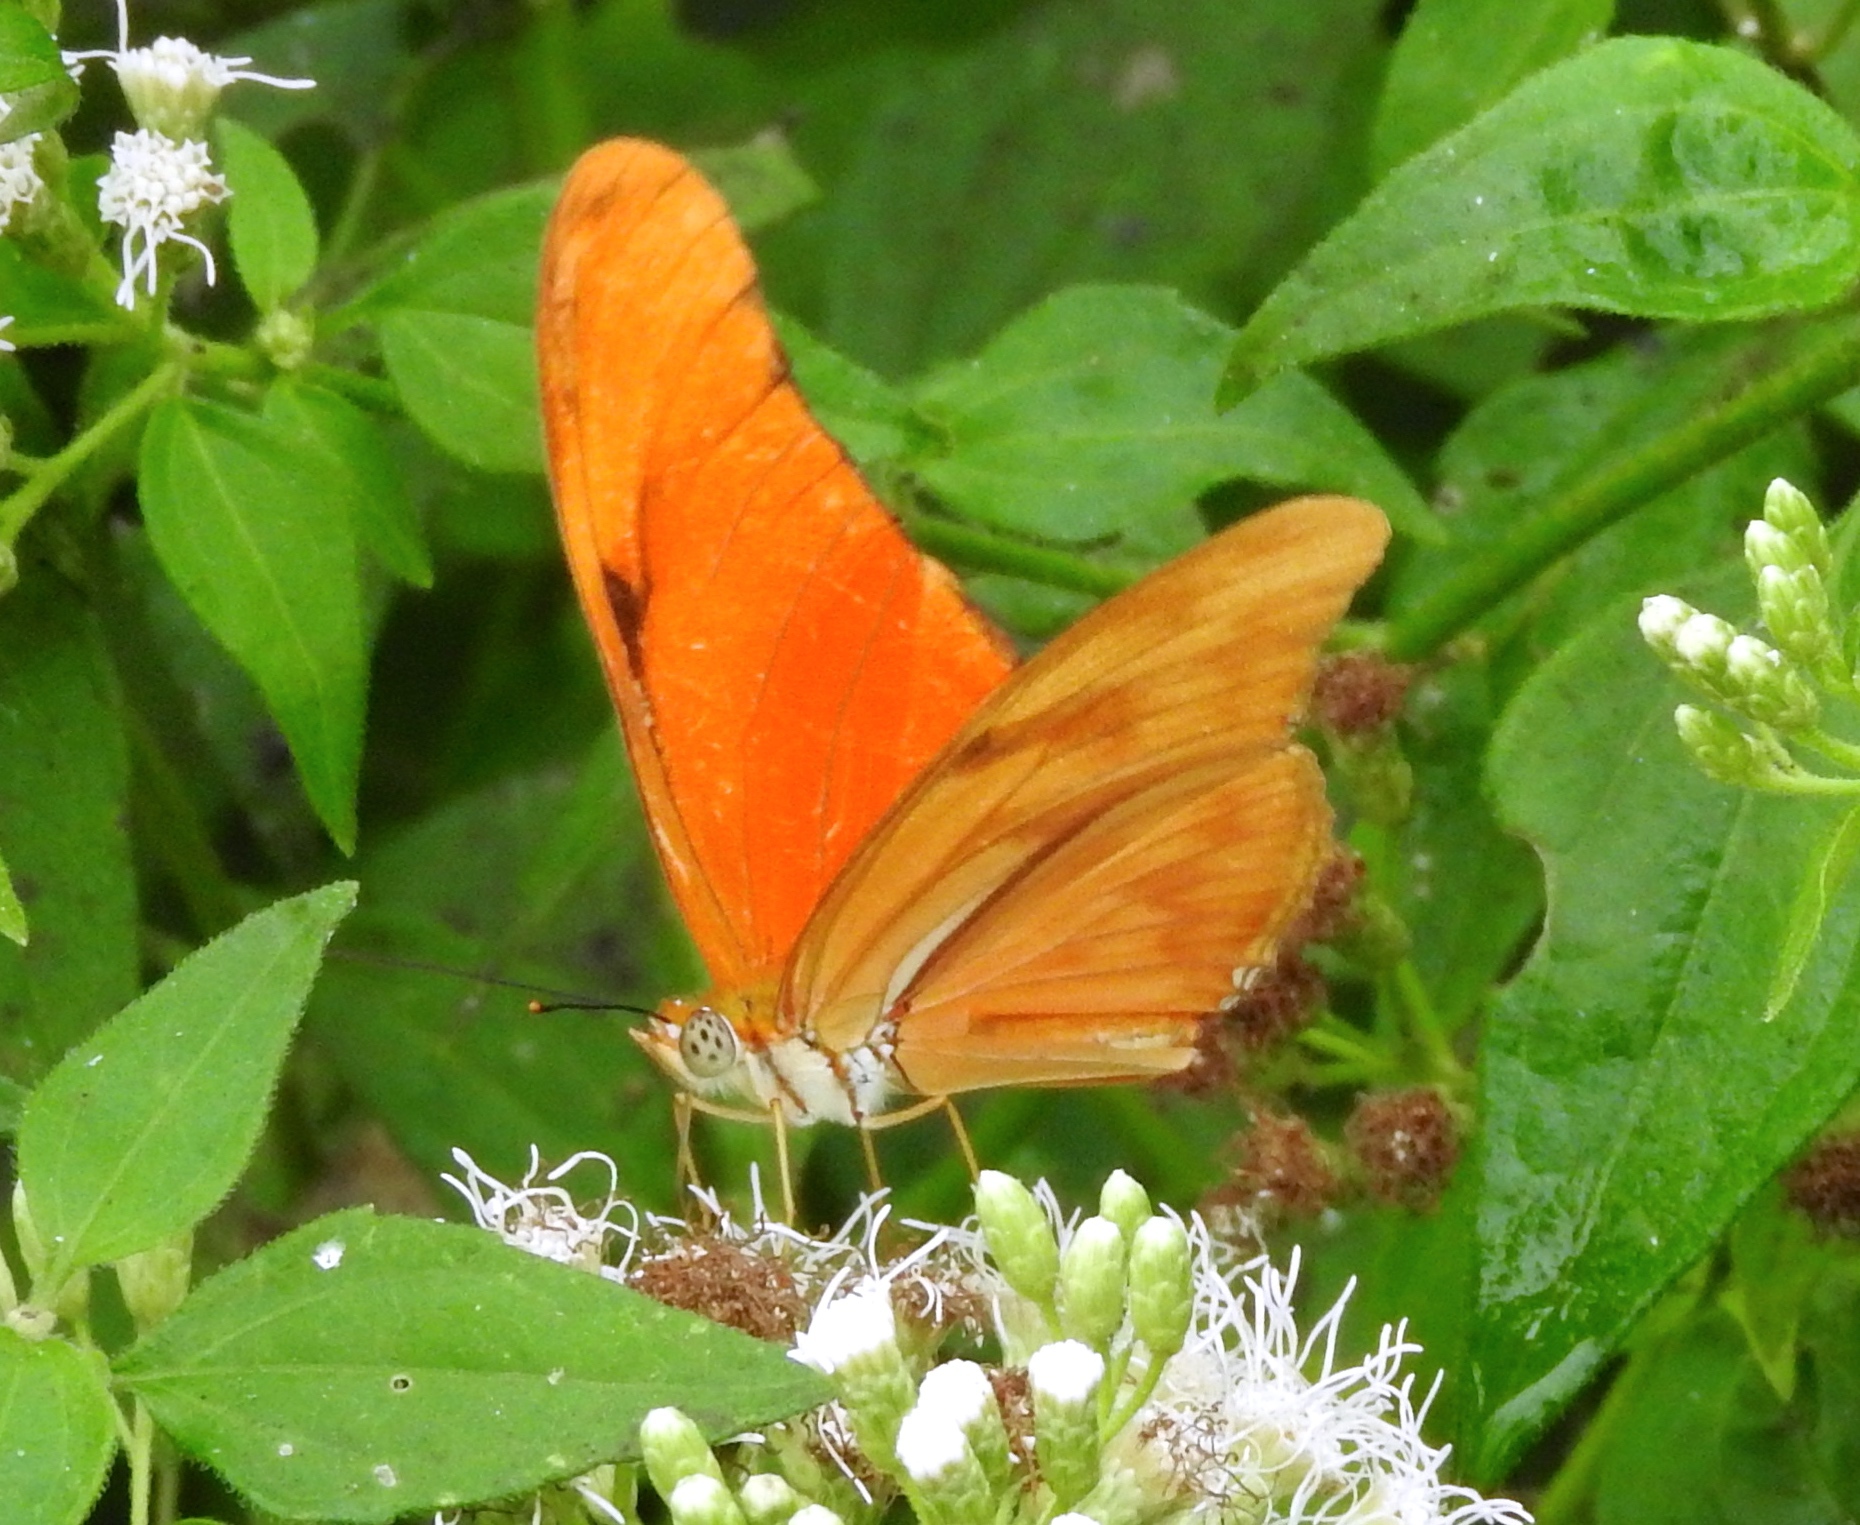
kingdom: Animalia
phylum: Arthropoda
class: Insecta
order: Lepidoptera
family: Nymphalidae
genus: Dryas
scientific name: Dryas iulia
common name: Flambeau
